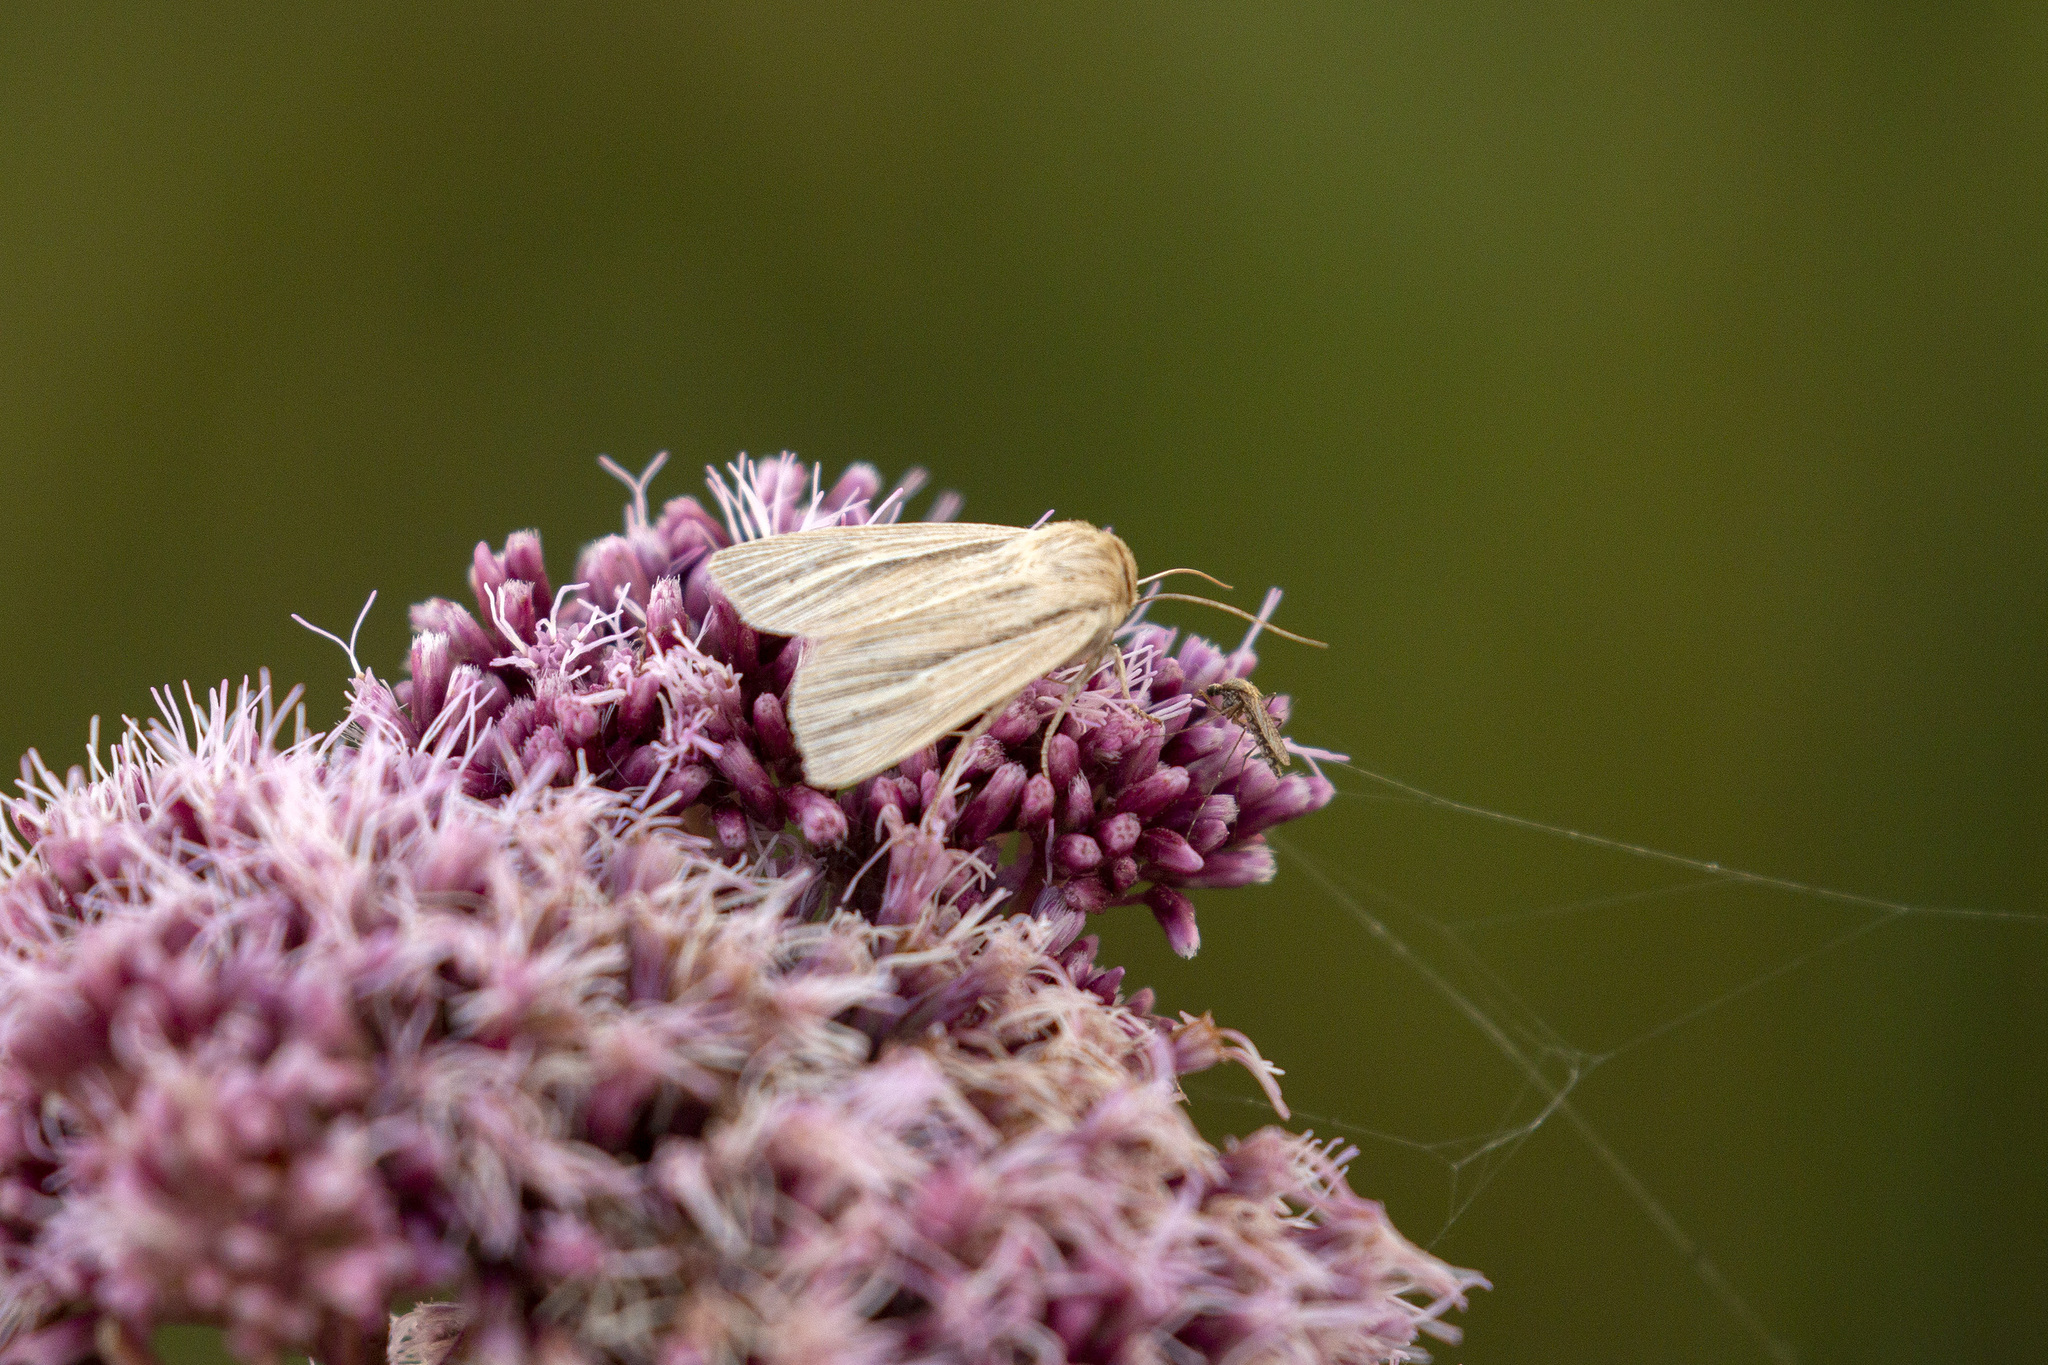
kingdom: Animalia
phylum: Arthropoda
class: Insecta
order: Lepidoptera
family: Noctuidae
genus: Mythimna
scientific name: Mythimna impura
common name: Smoky wainscot
